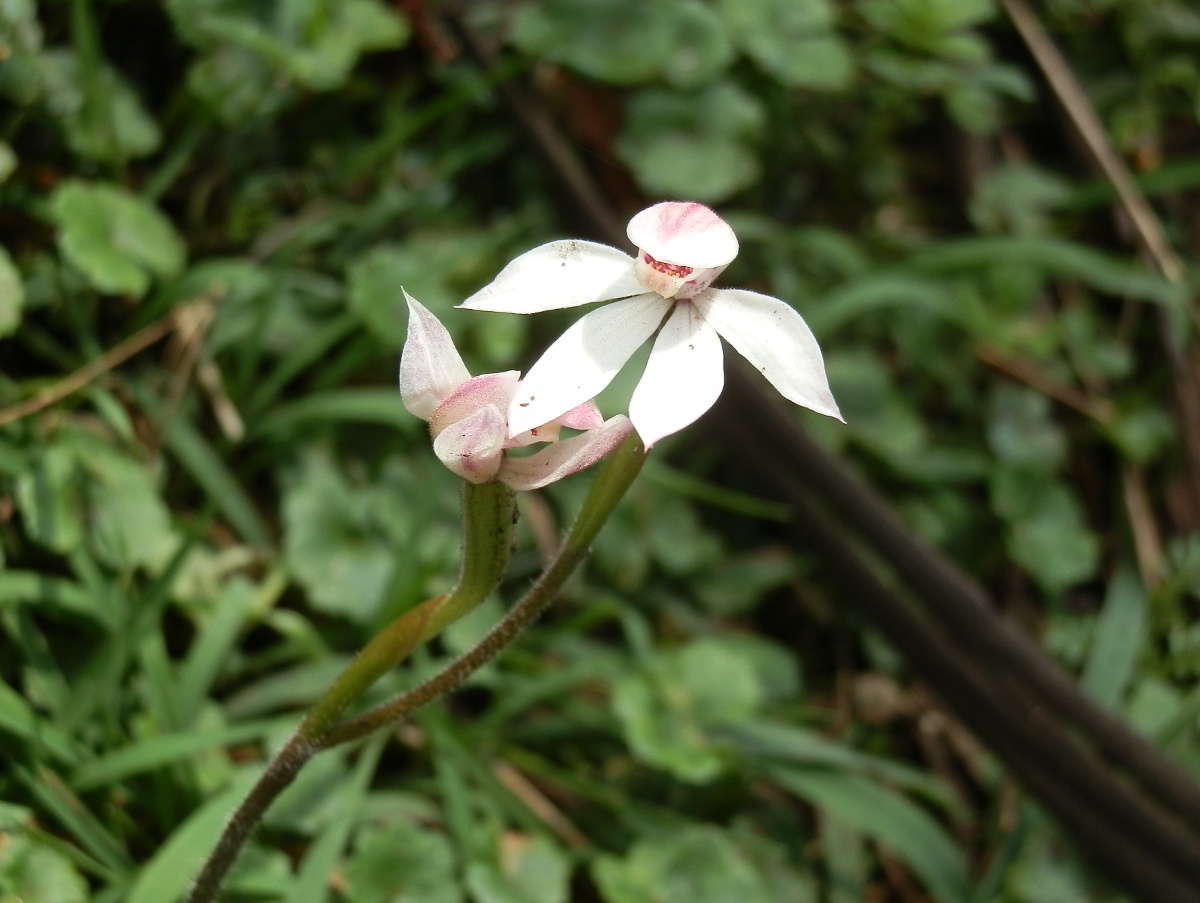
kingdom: Plantae
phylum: Tracheophyta
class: Liliopsida
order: Asparagales
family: Orchidaceae
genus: Caladenia
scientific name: Caladenia alpina
